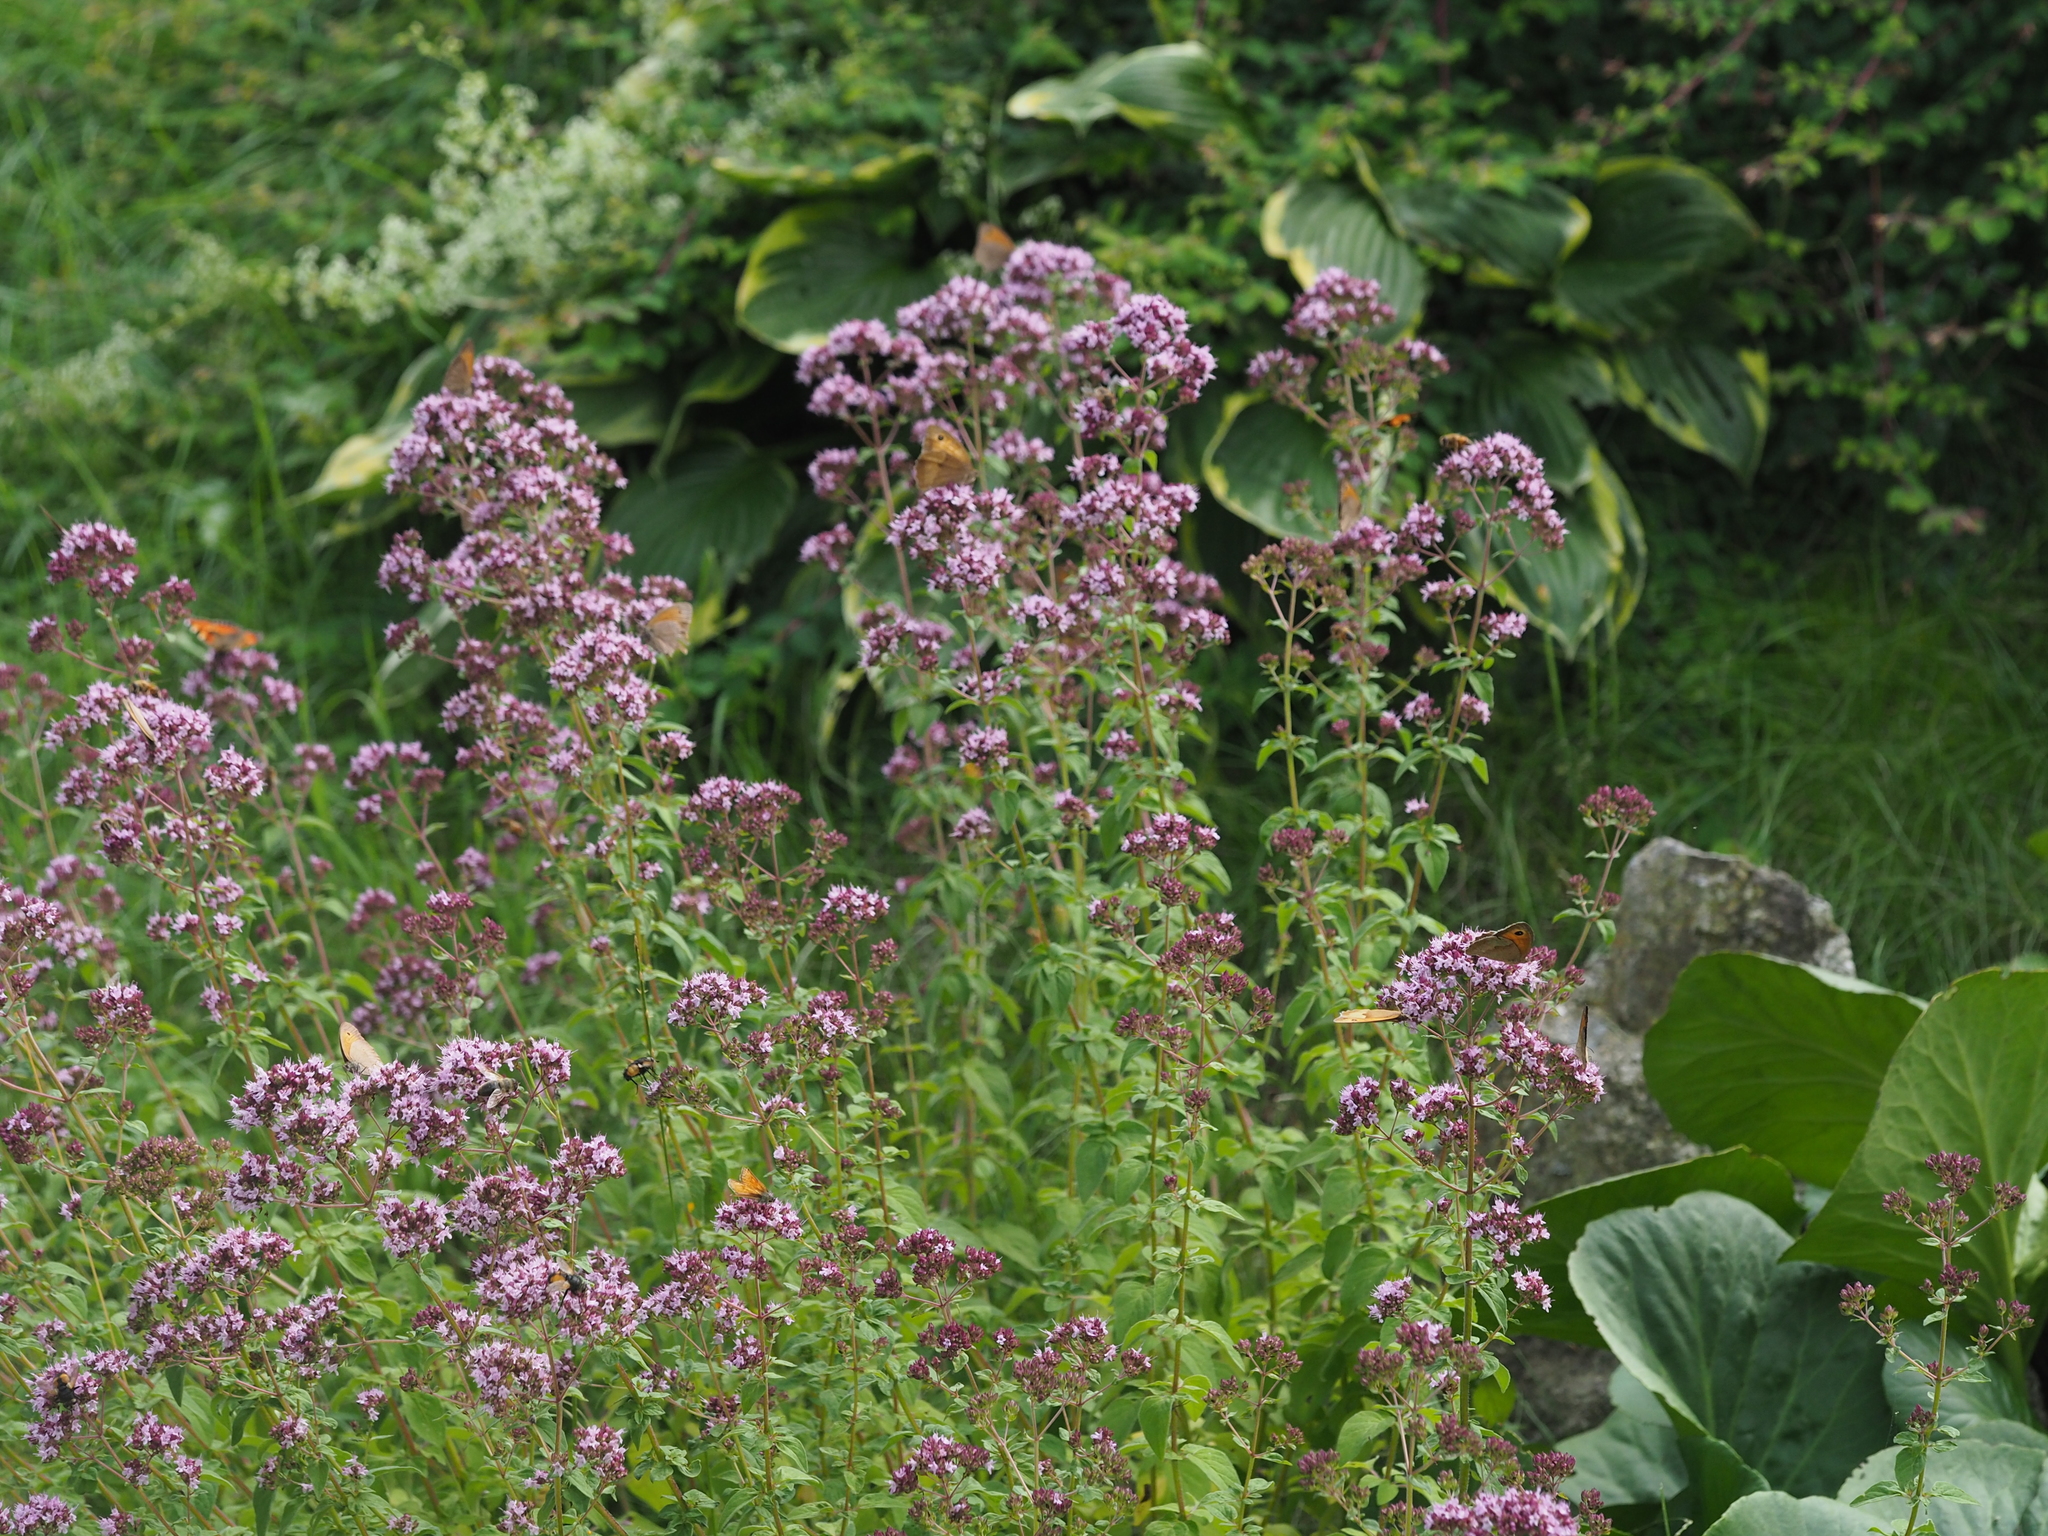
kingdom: Animalia
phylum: Arthropoda
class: Insecta
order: Lepidoptera
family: Nymphalidae
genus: Maniola
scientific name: Maniola jurtina
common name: Meadow brown
